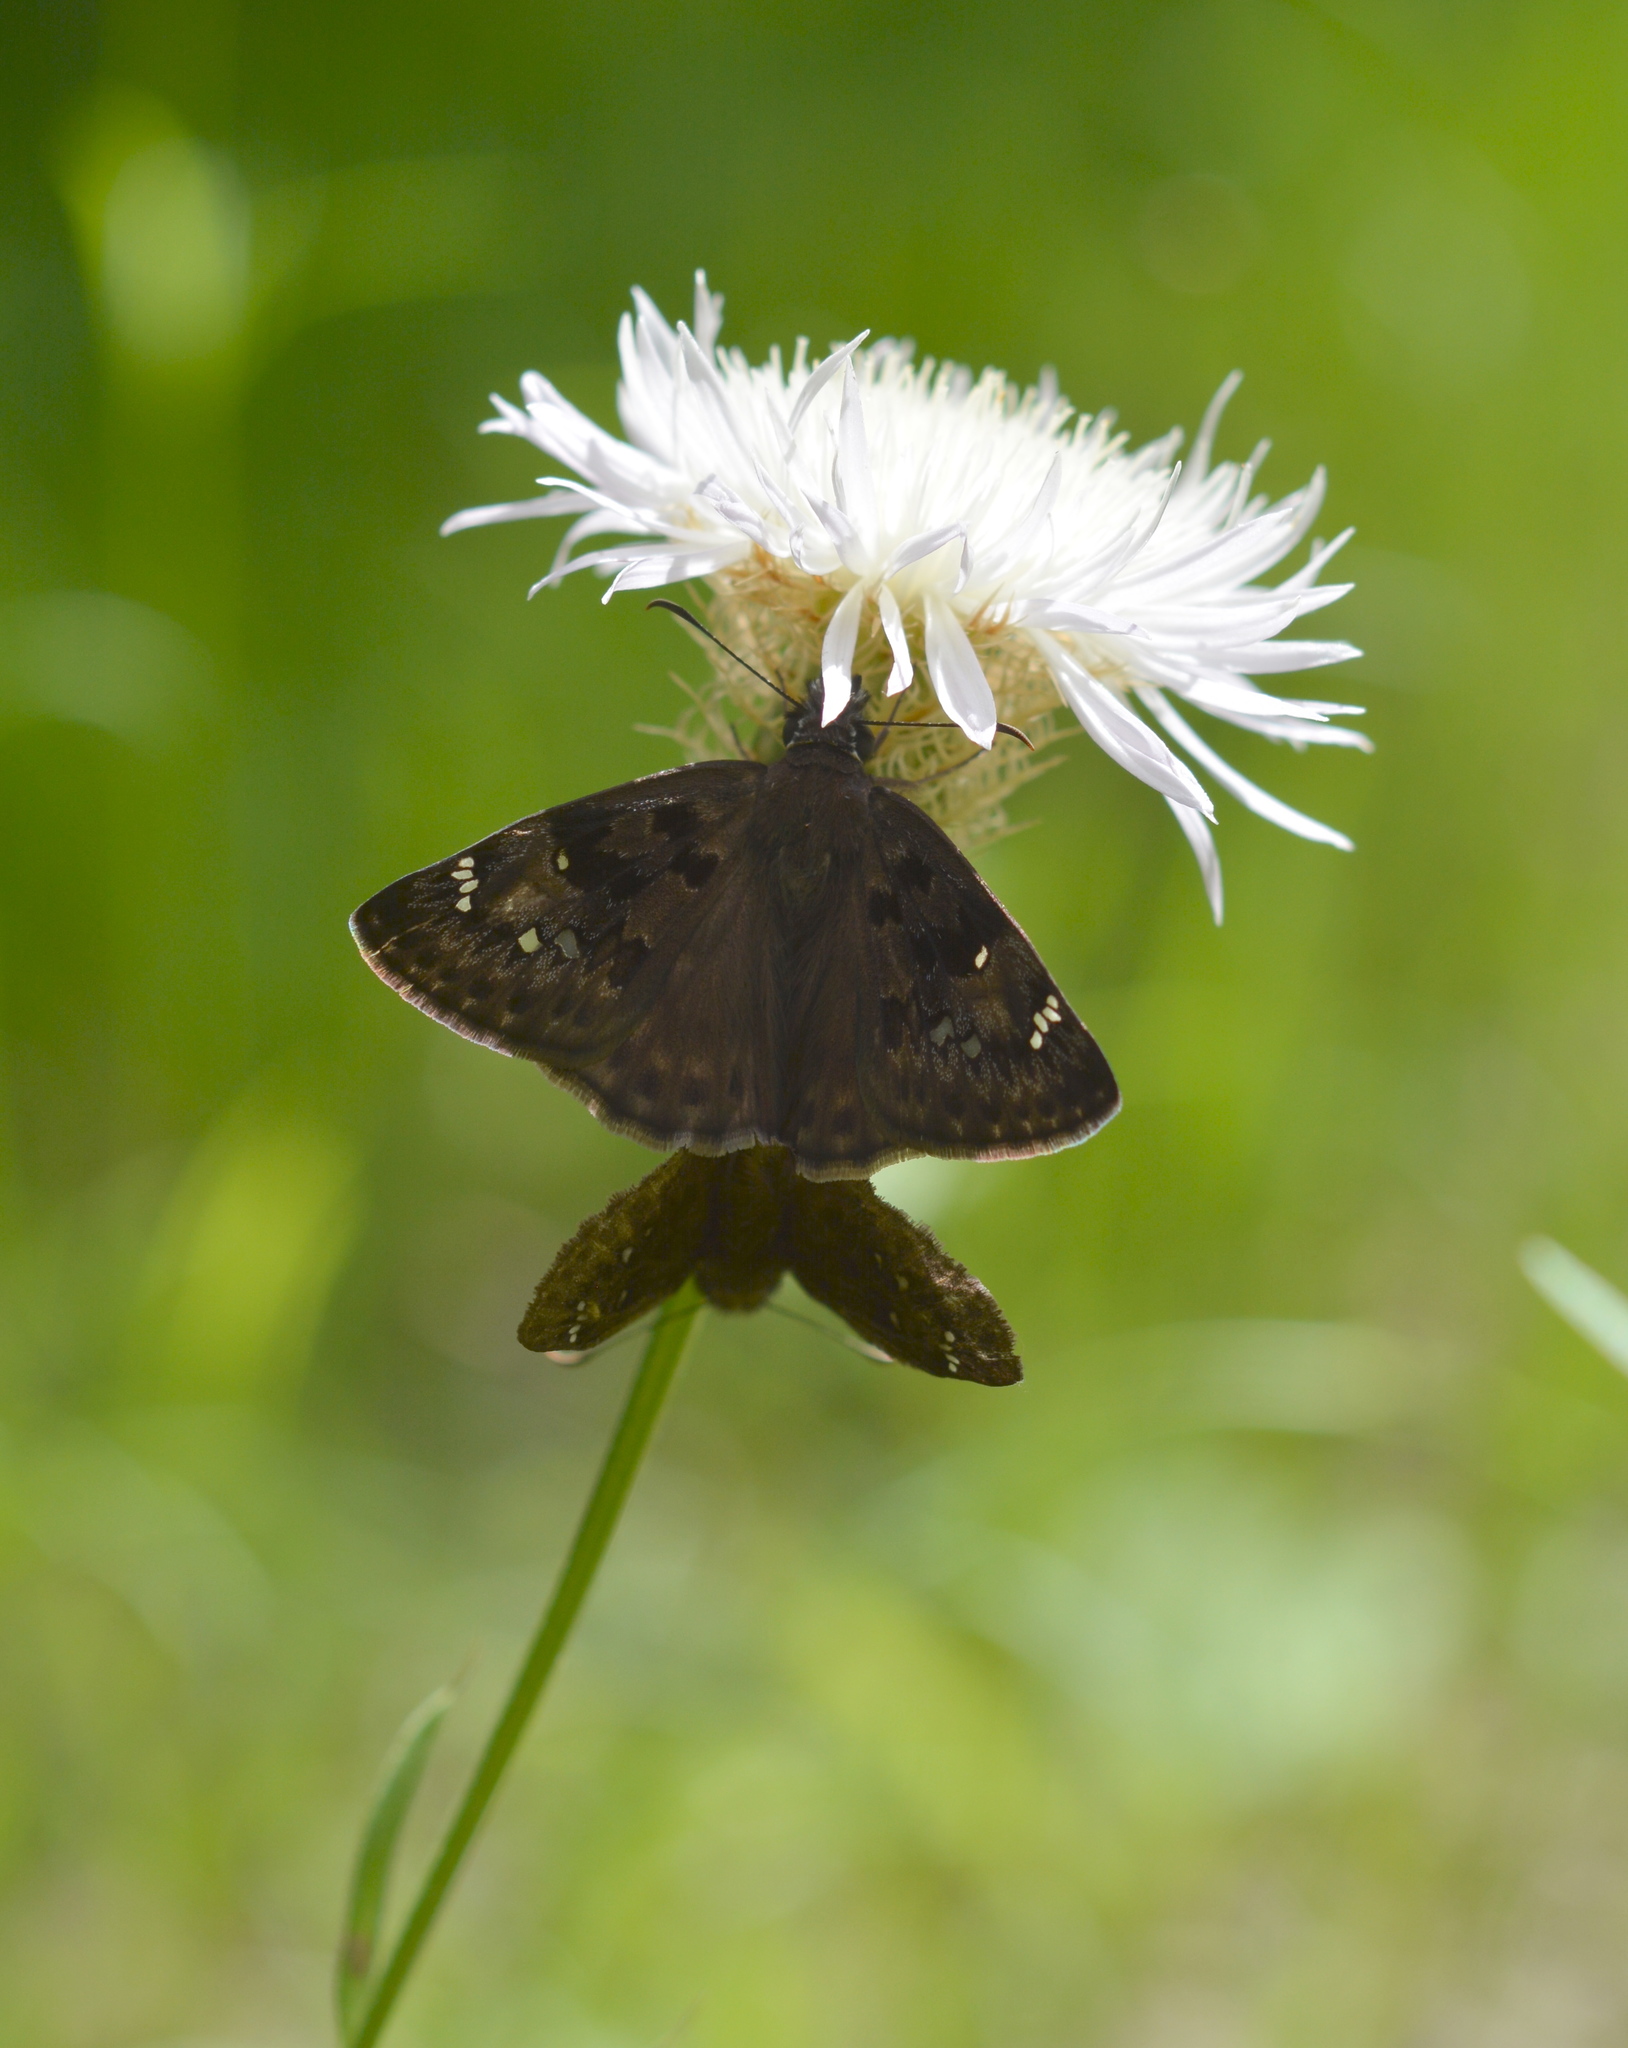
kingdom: Animalia
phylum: Arthropoda
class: Insecta
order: Lepidoptera
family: Hesperiidae
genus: Erynnis
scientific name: Erynnis horatius
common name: Horace's duskywing
